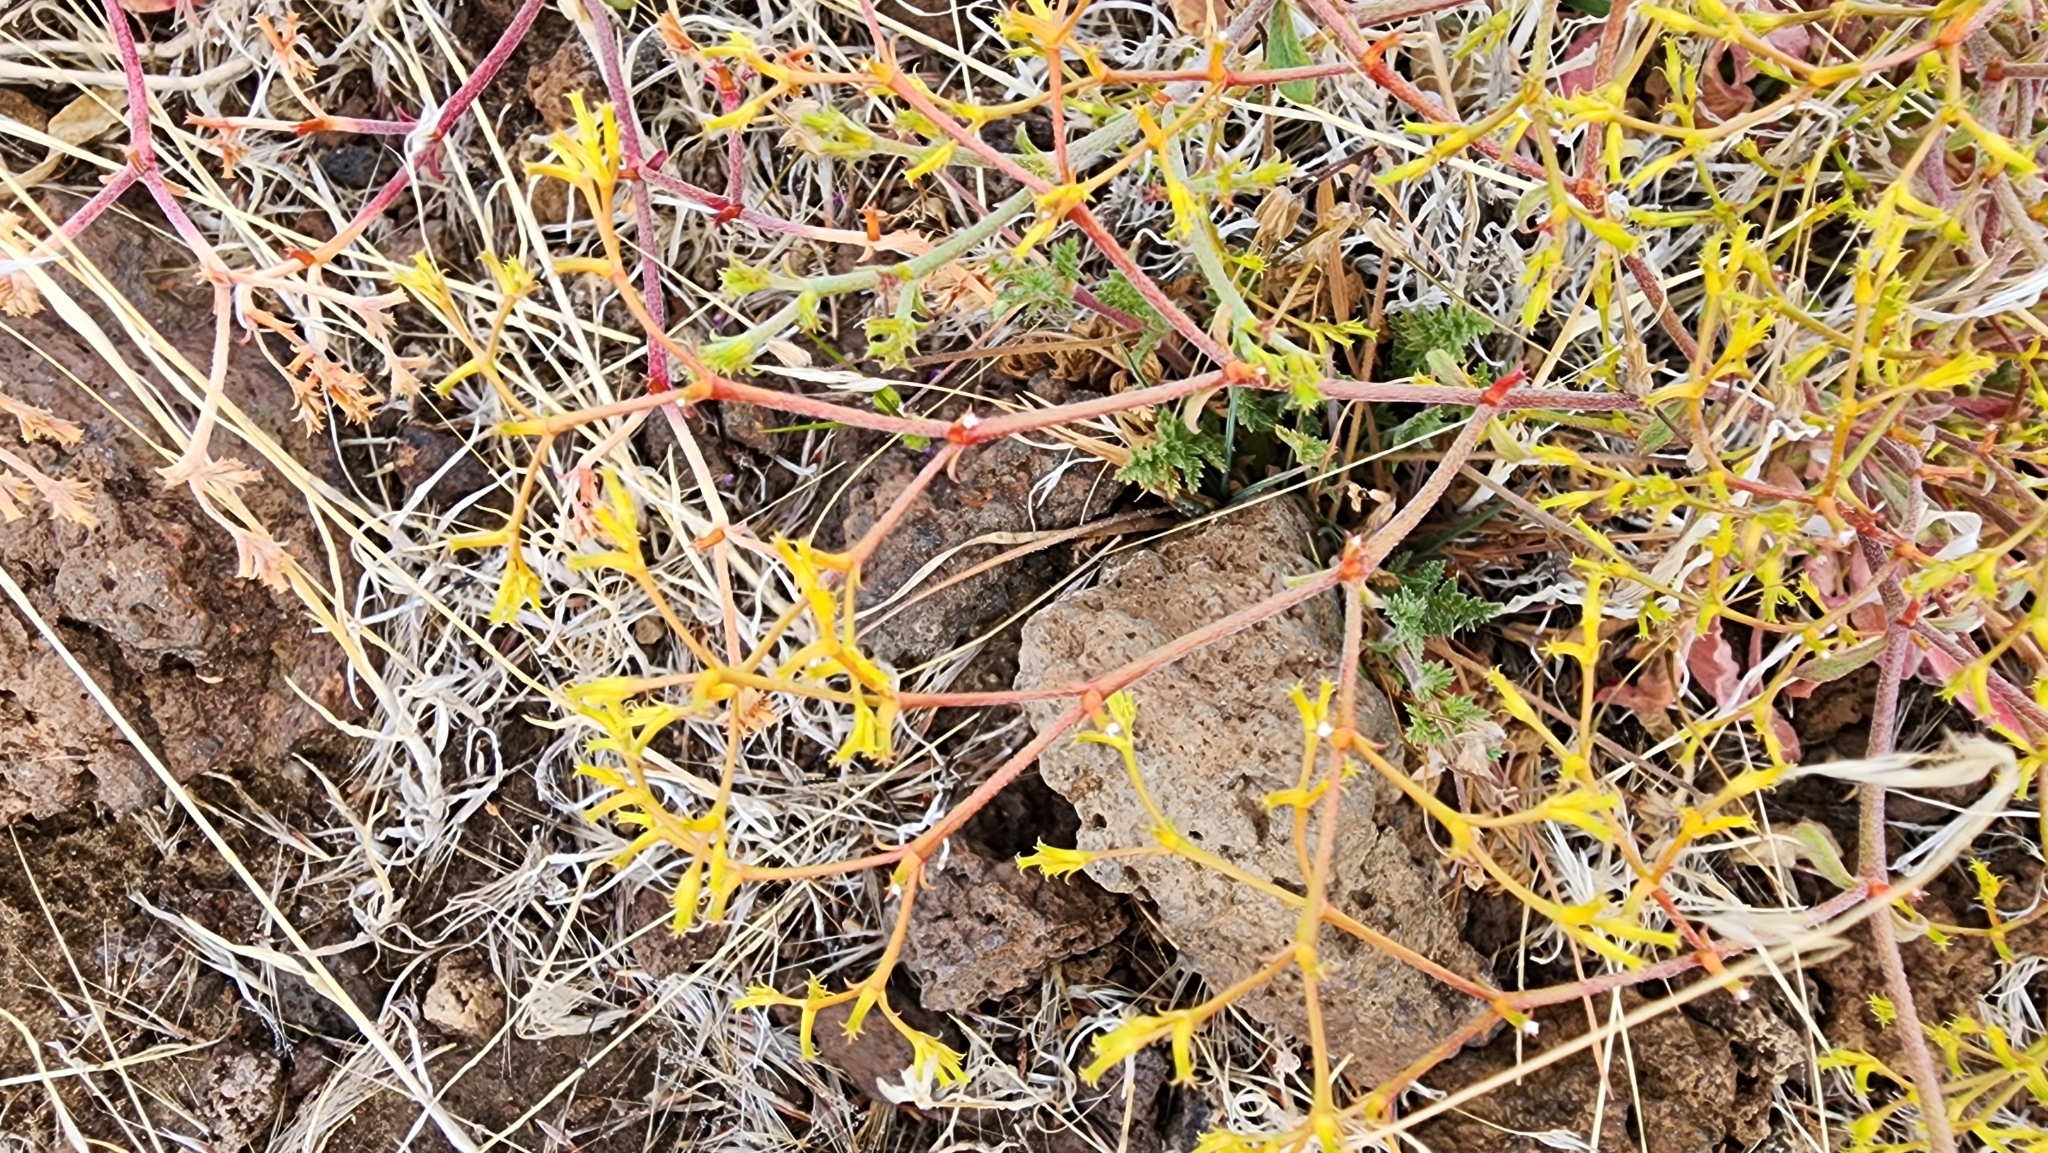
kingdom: Plantae
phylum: Tracheophyta
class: Magnoliopsida
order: Caryophyllales
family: Polygonaceae
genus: Chorizanthe
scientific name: Chorizanthe brevicornu
